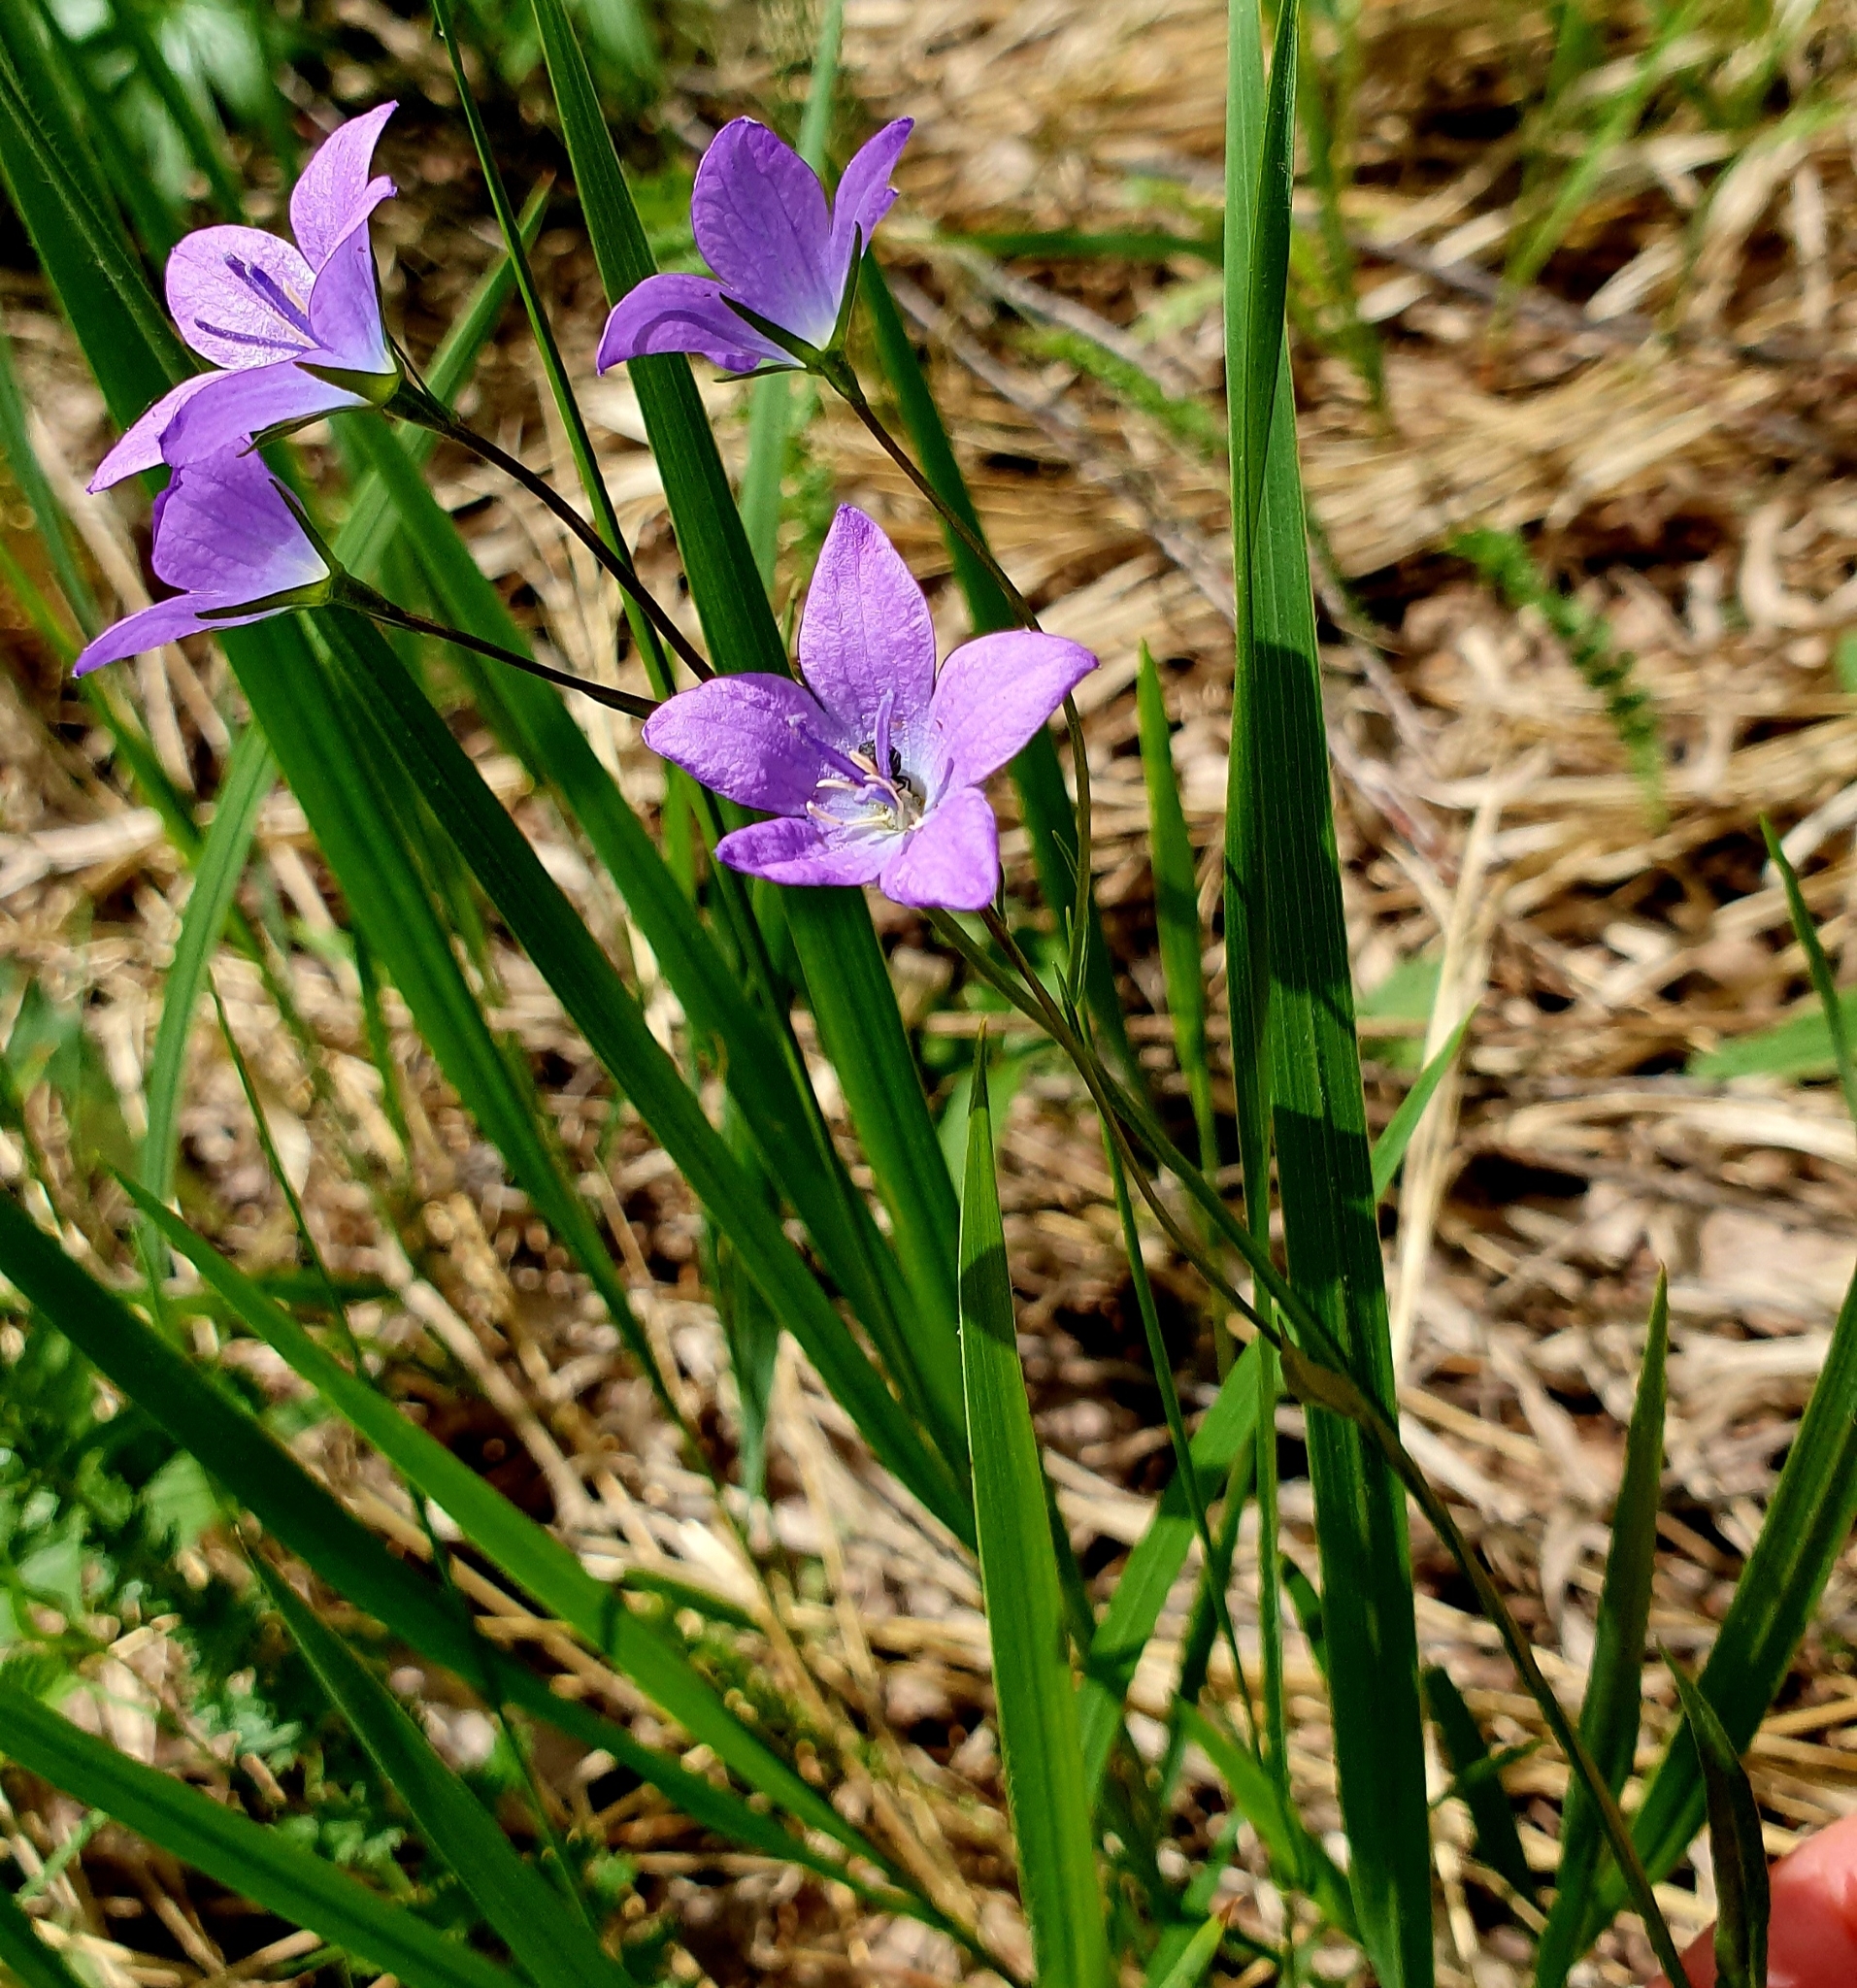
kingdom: Plantae
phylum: Tracheophyta
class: Magnoliopsida
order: Asterales
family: Campanulaceae
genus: Campanula
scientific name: Campanula stevenii
